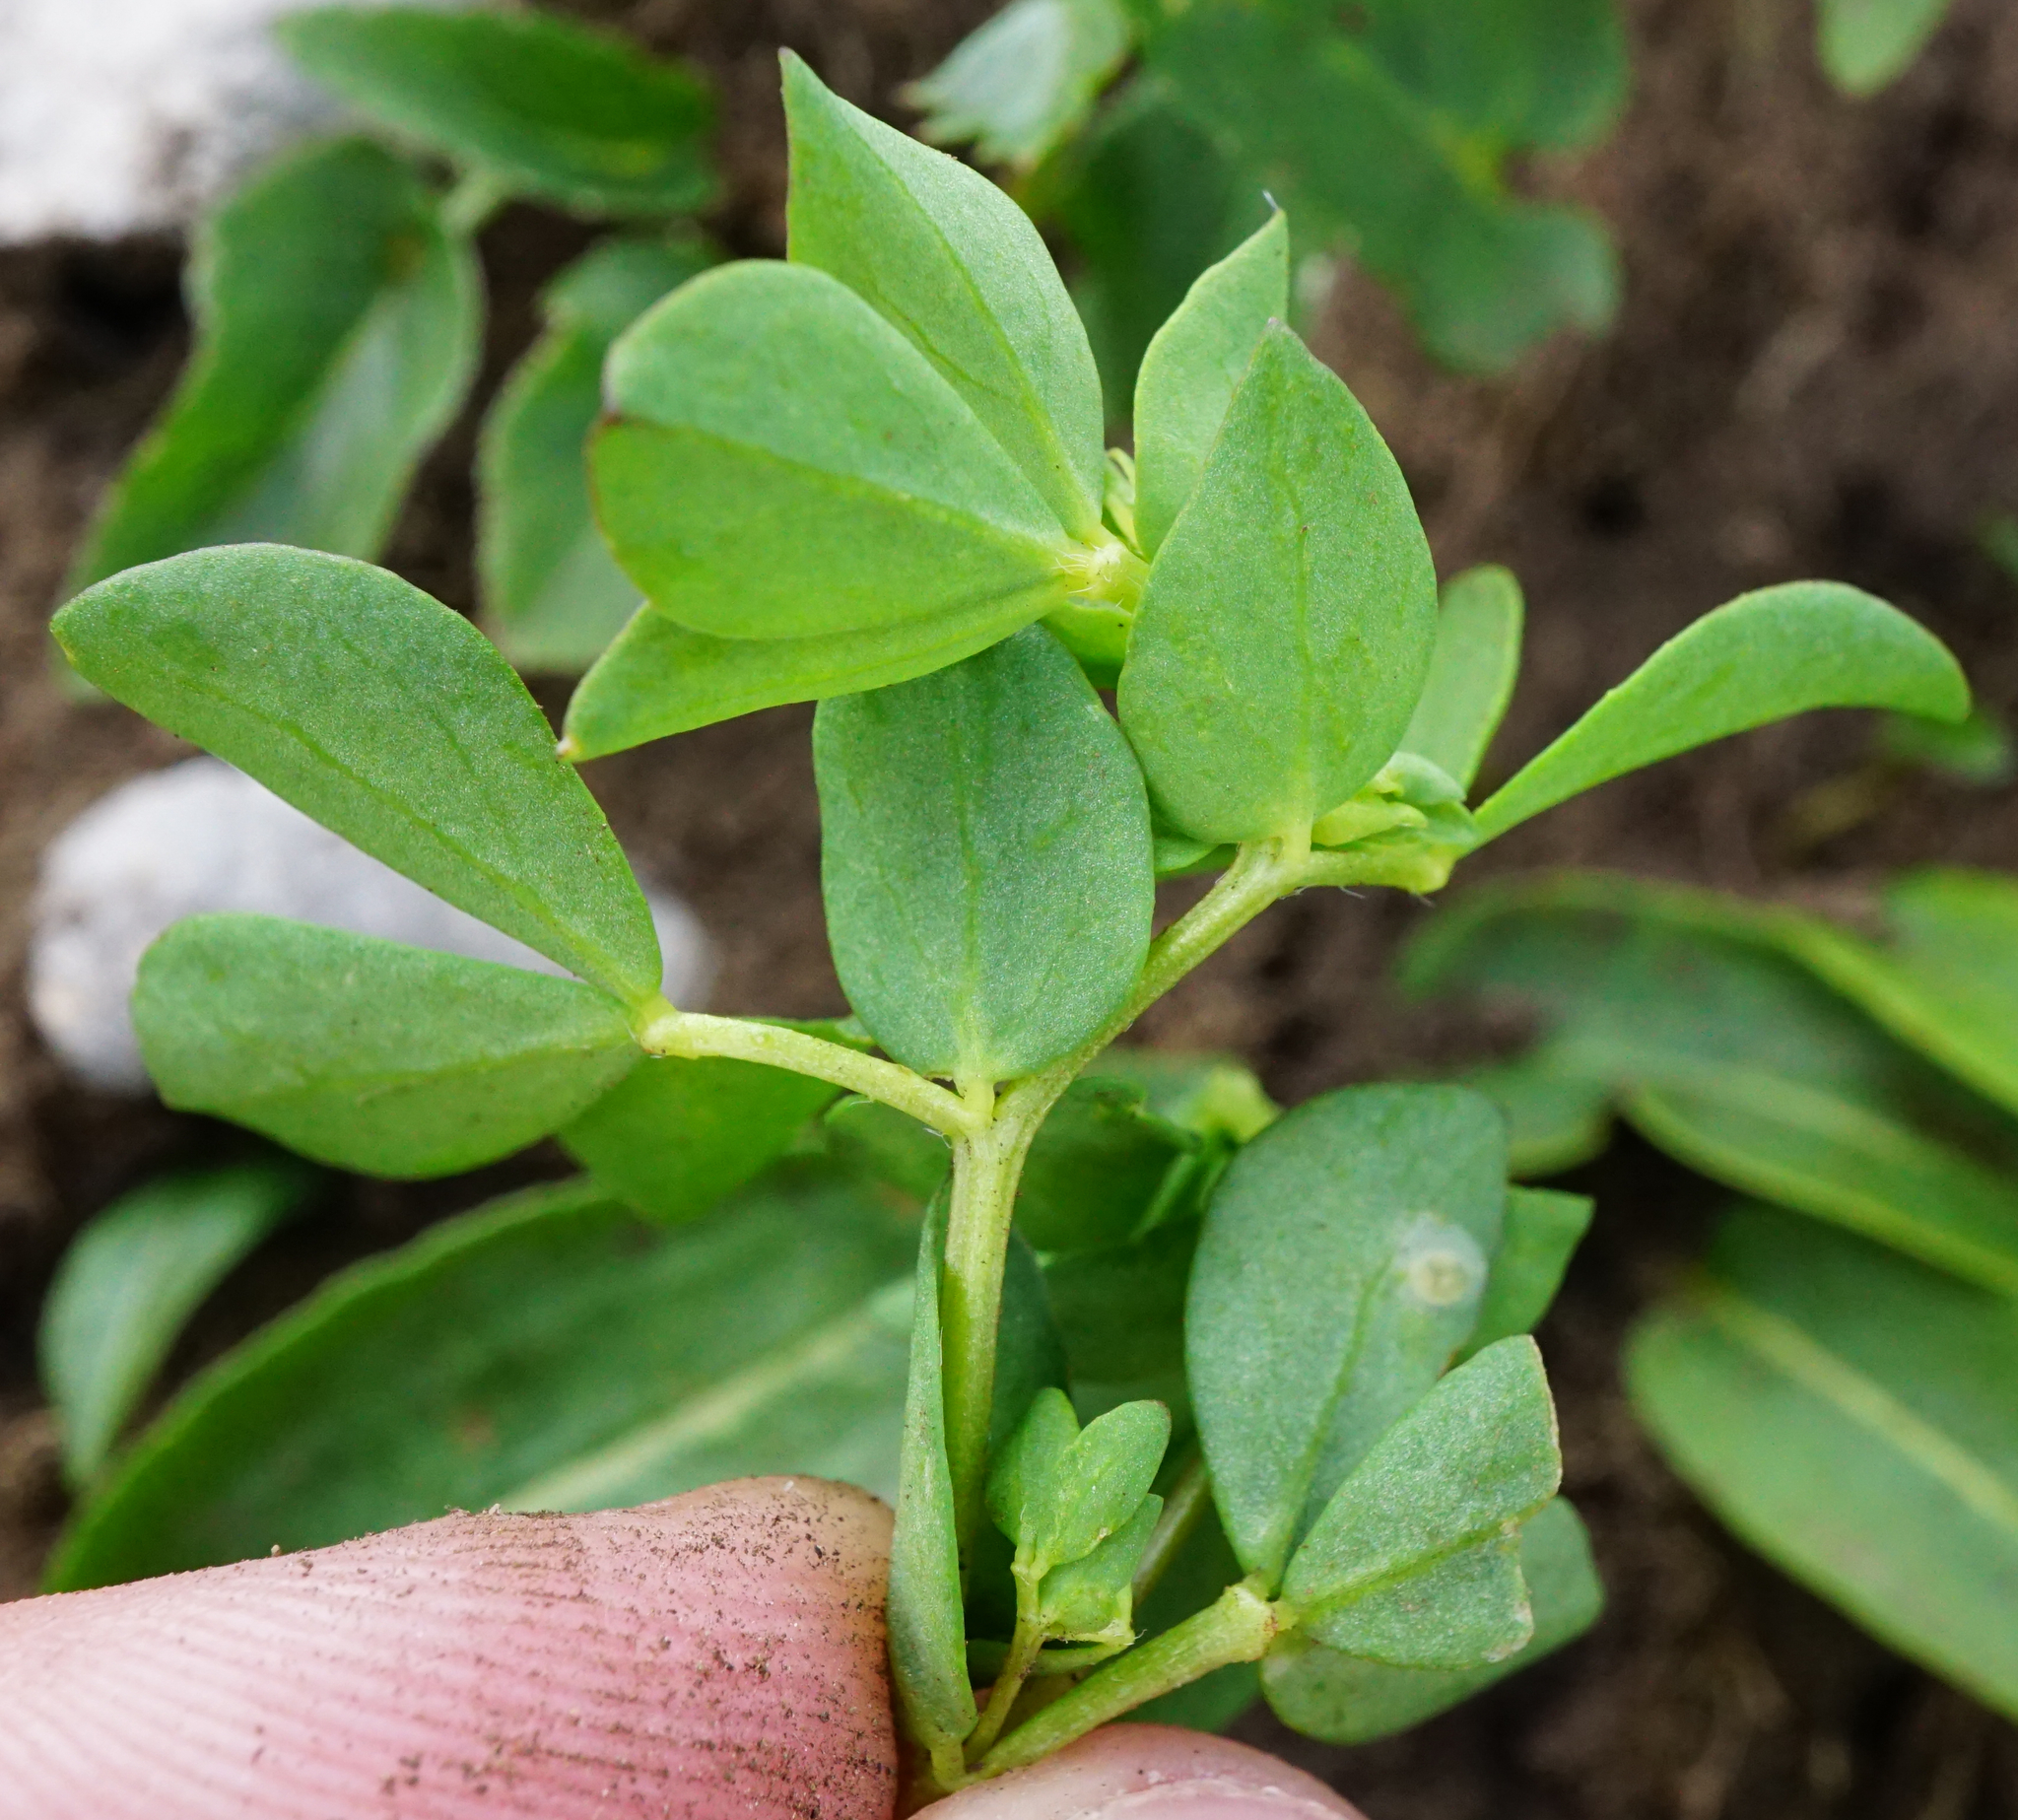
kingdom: Plantae
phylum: Tracheophyta
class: Magnoliopsida
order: Fabales
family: Fabaceae
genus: Lotus
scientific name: Lotus alpinus
